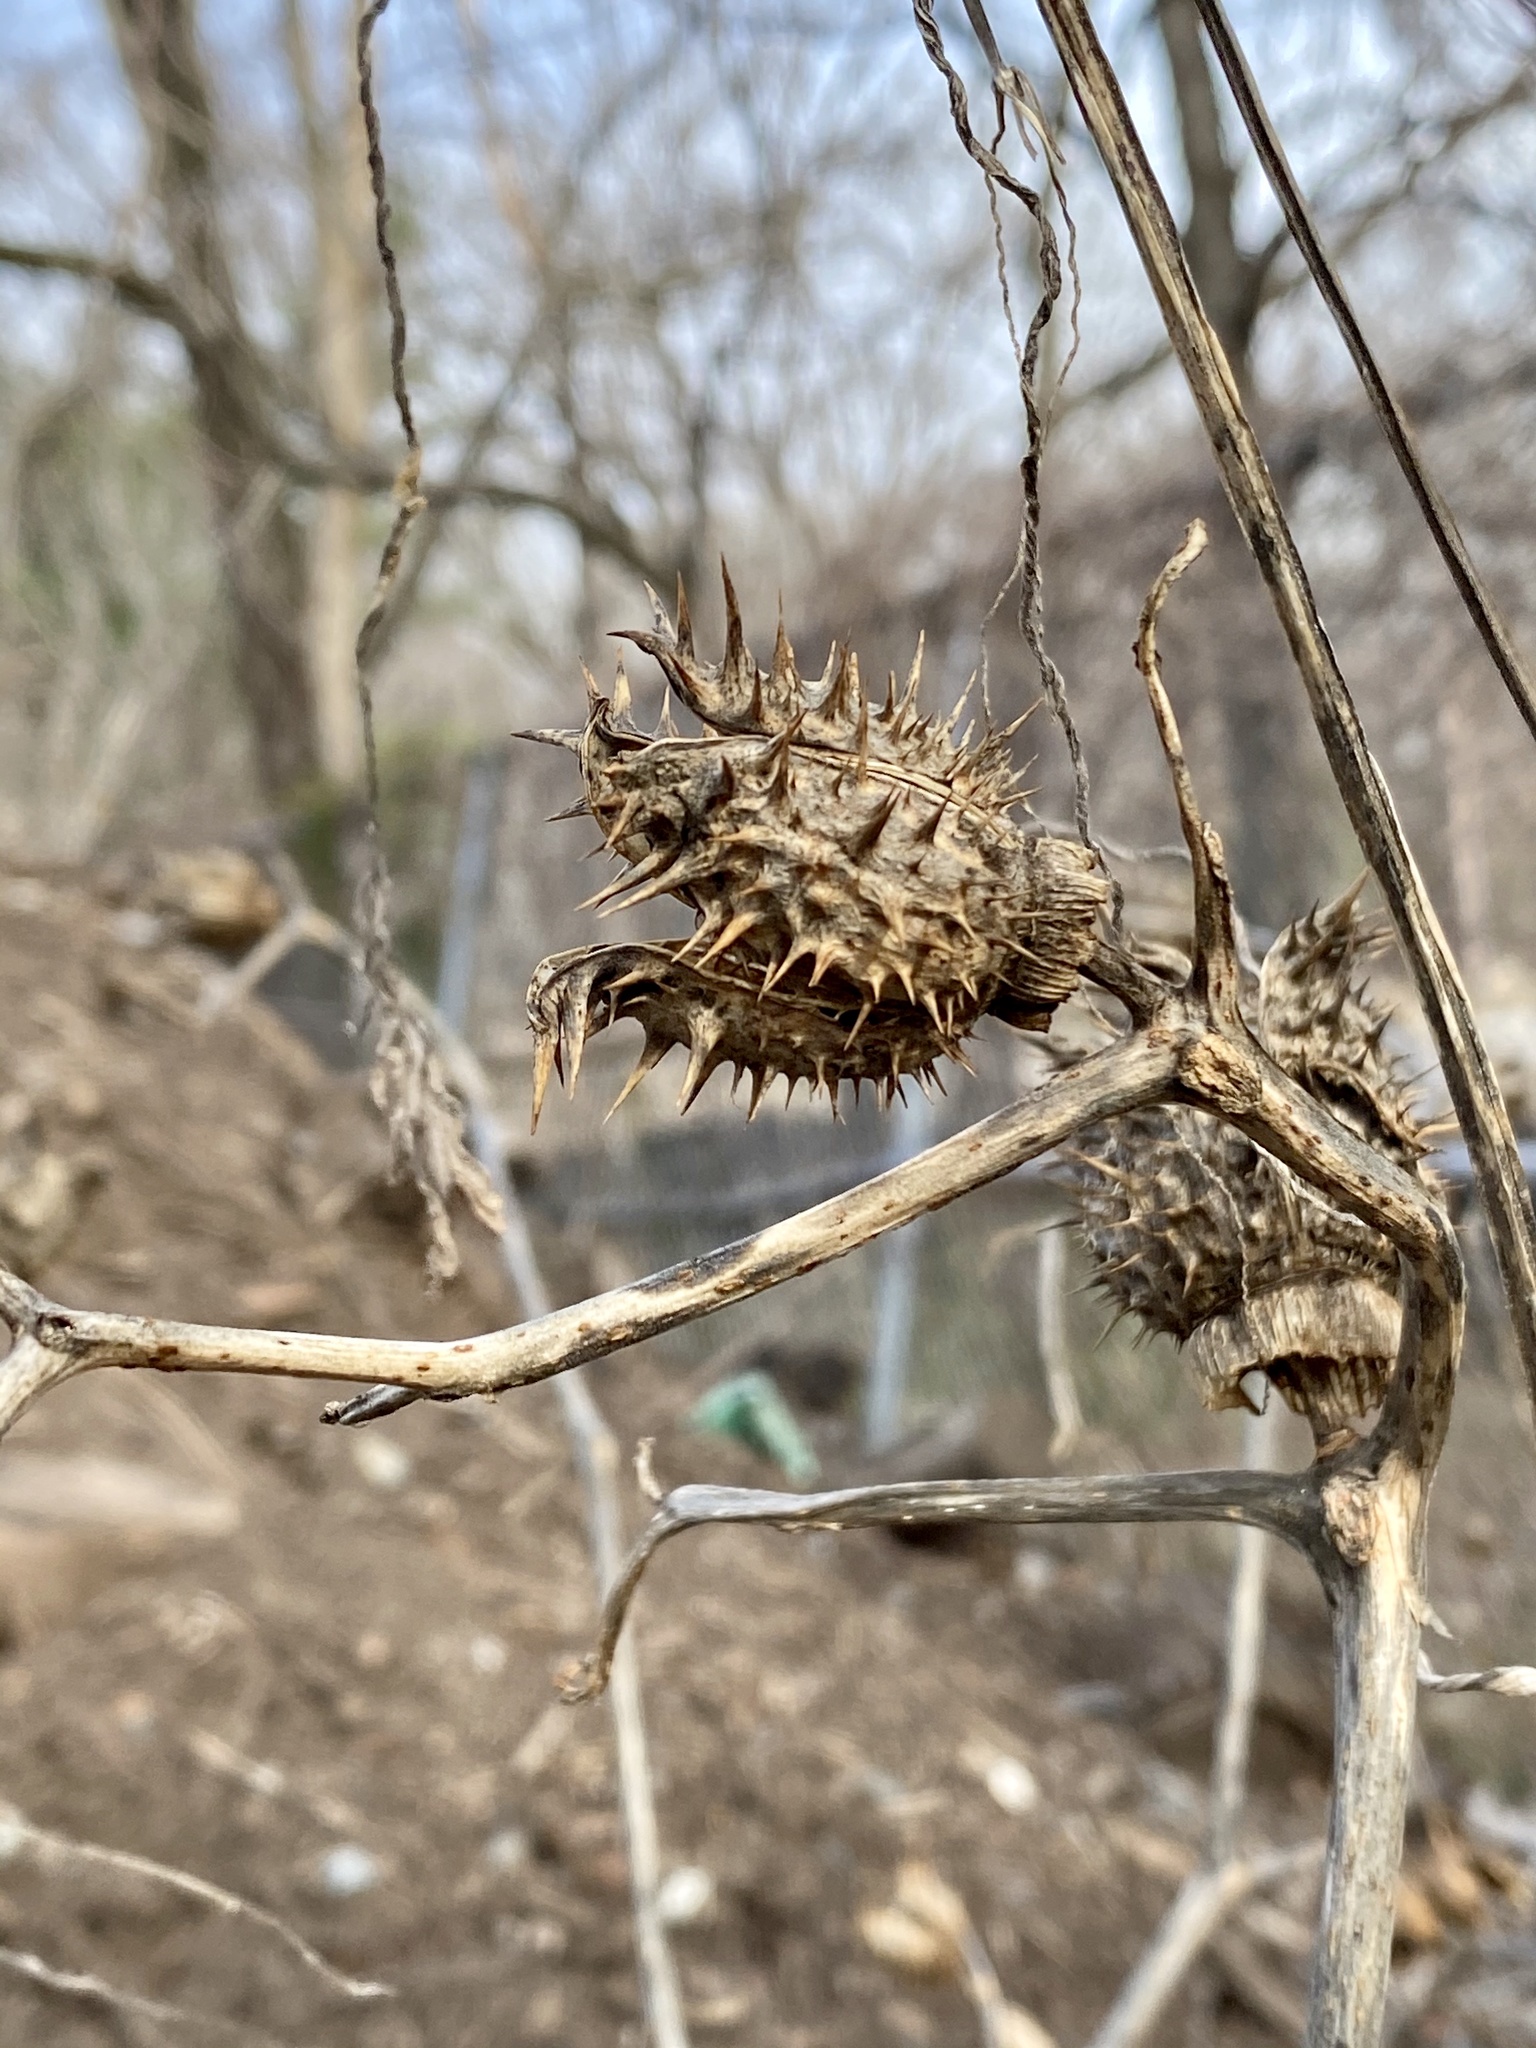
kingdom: Plantae
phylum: Tracheophyta
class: Magnoliopsida
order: Solanales
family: Solanaceae
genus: Datura
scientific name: Datura stramonium
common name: Thorn-apple
